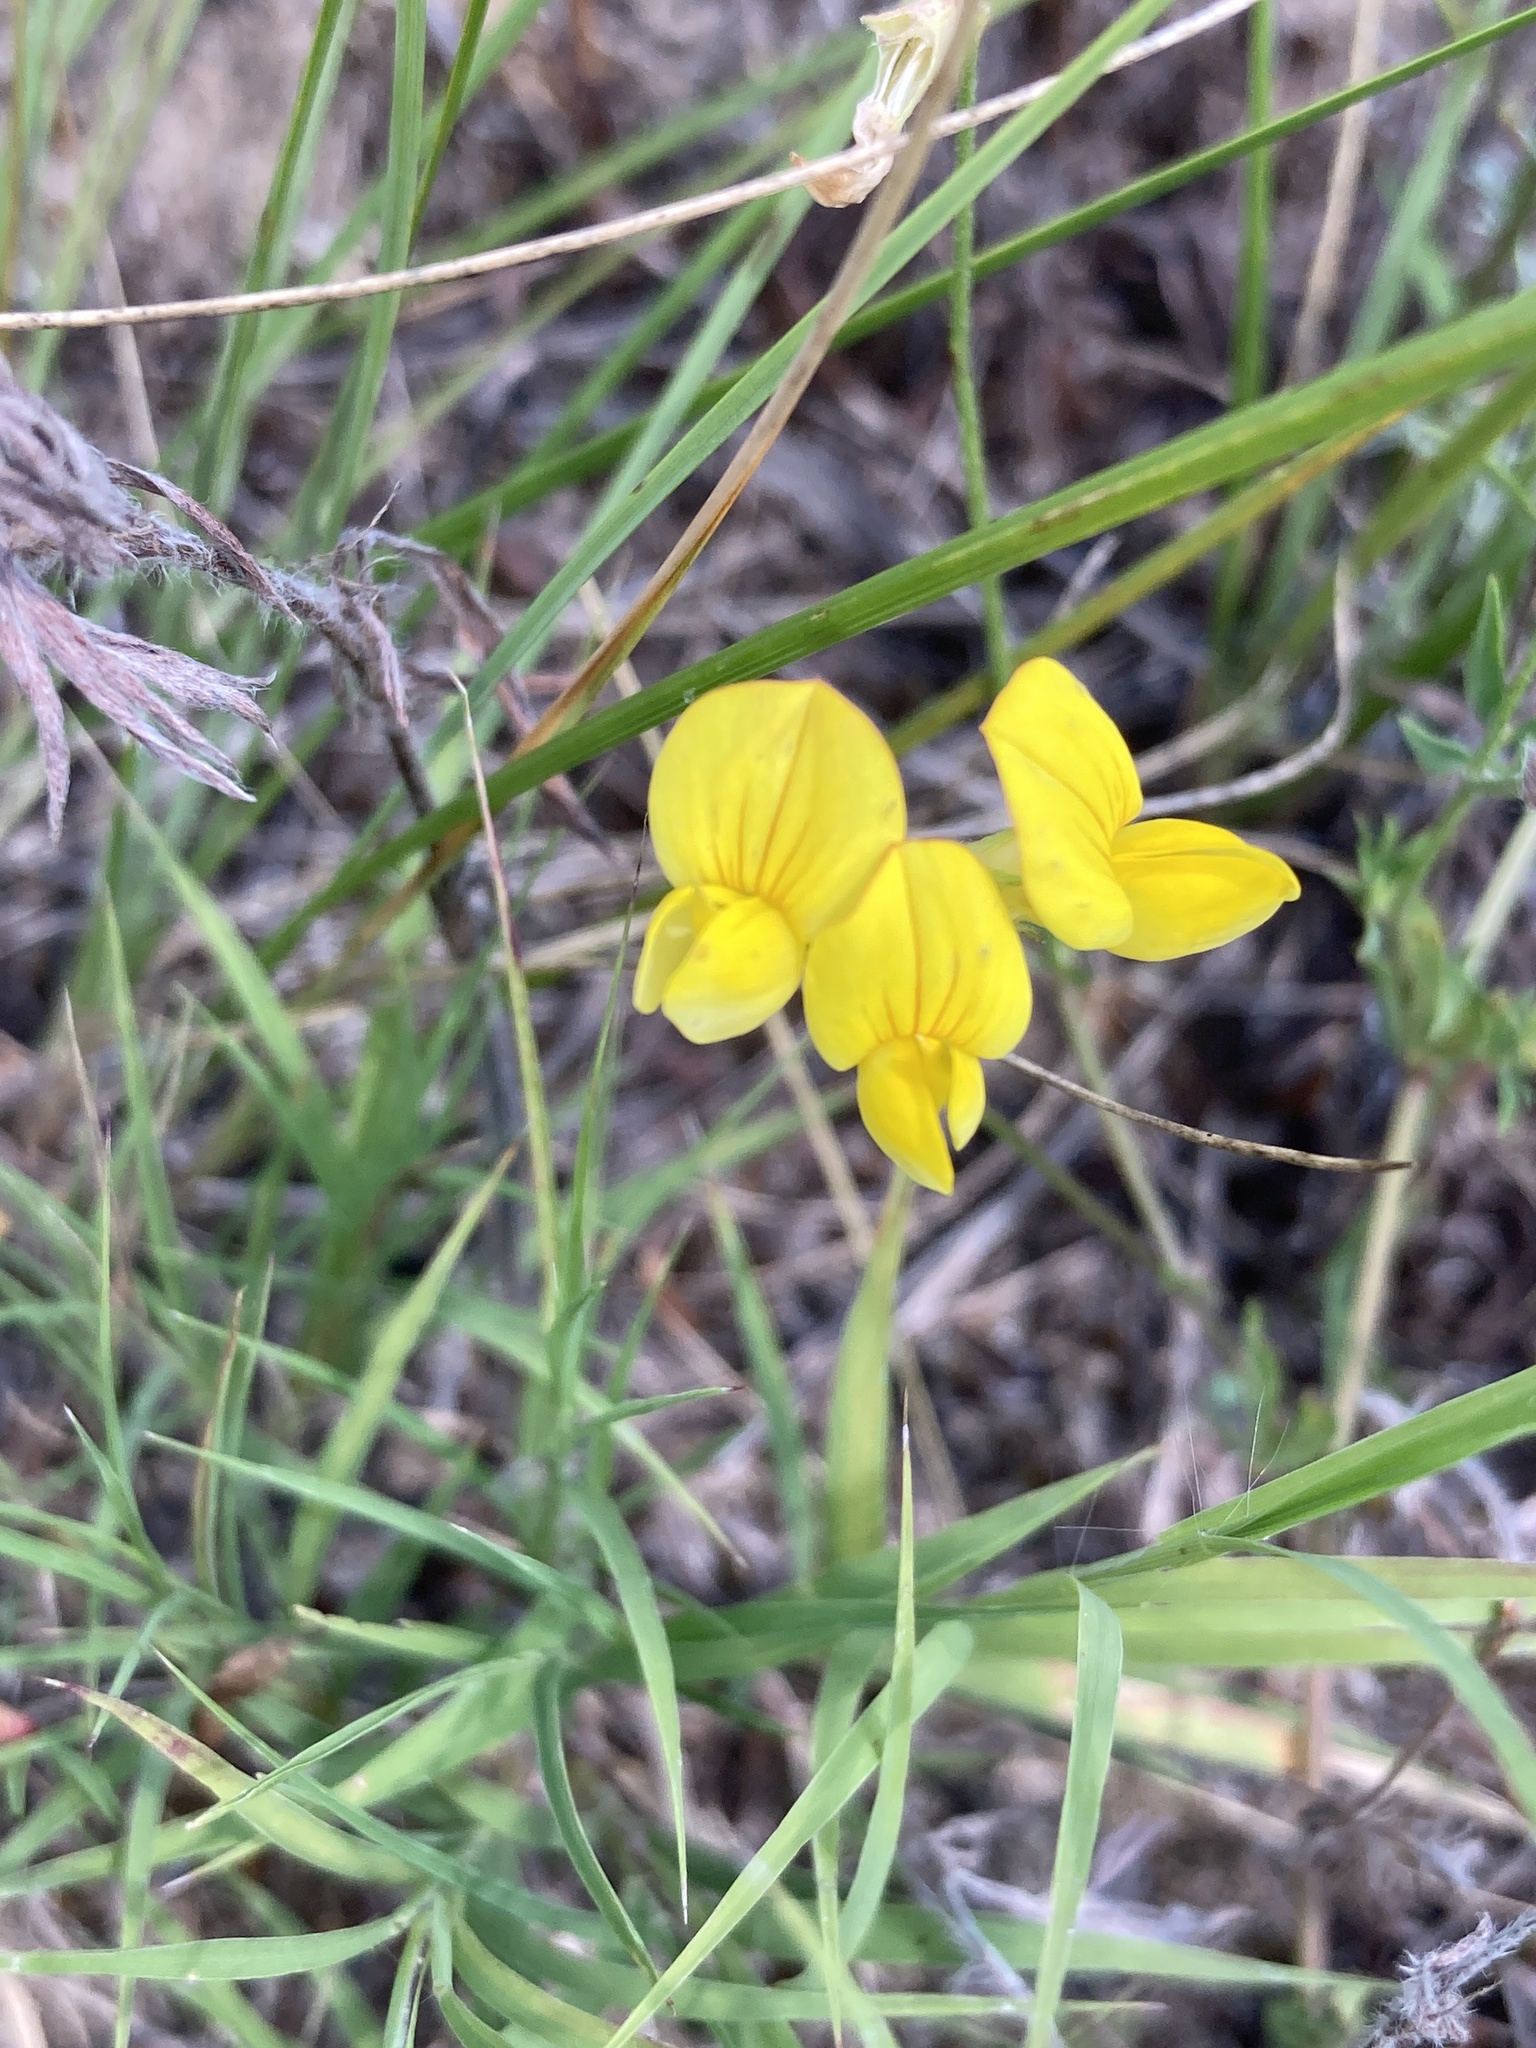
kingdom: Plantae
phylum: Tracheophyta
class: Magnoliopsida
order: Fabales
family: Fabaceae
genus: Lotus
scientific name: Lotus corniculatus
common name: Common bird's-foot-trefoil
